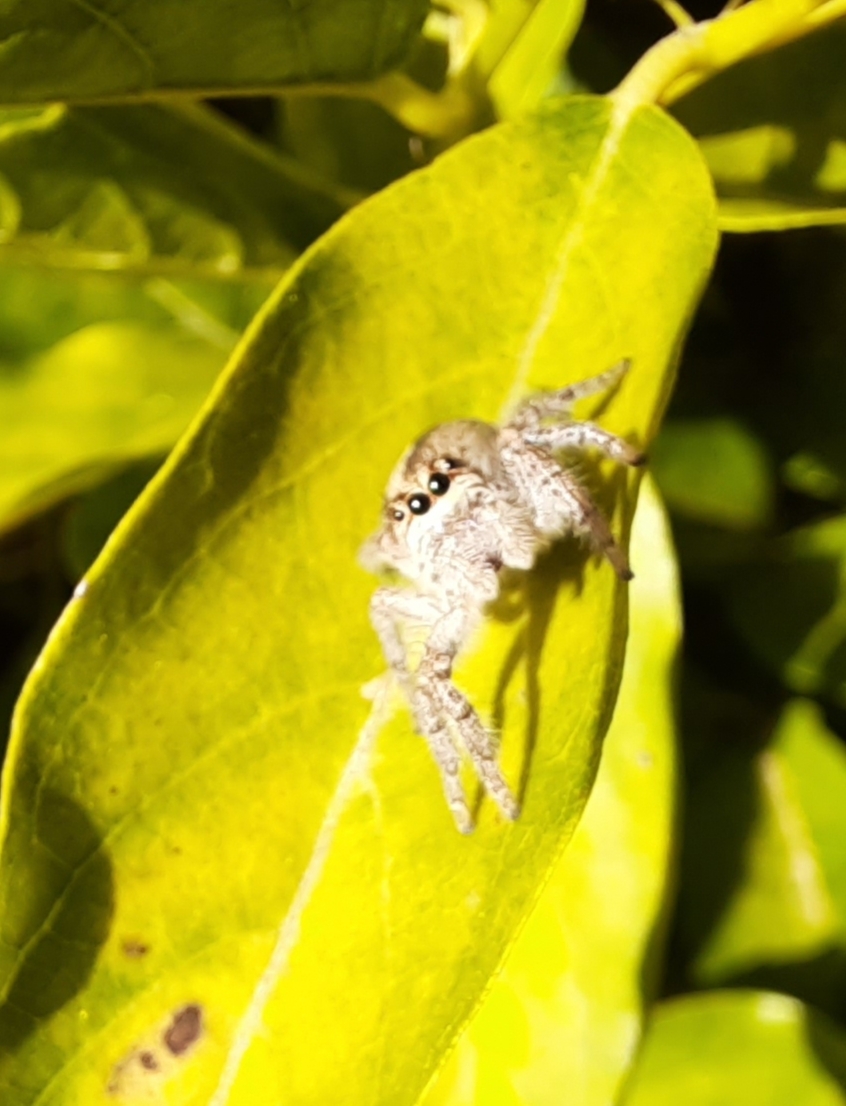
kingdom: Animalia
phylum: Arthropoda
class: Arachnida
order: Araneae
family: Salticidae
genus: Megafreya
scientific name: Megafreya sutrix
